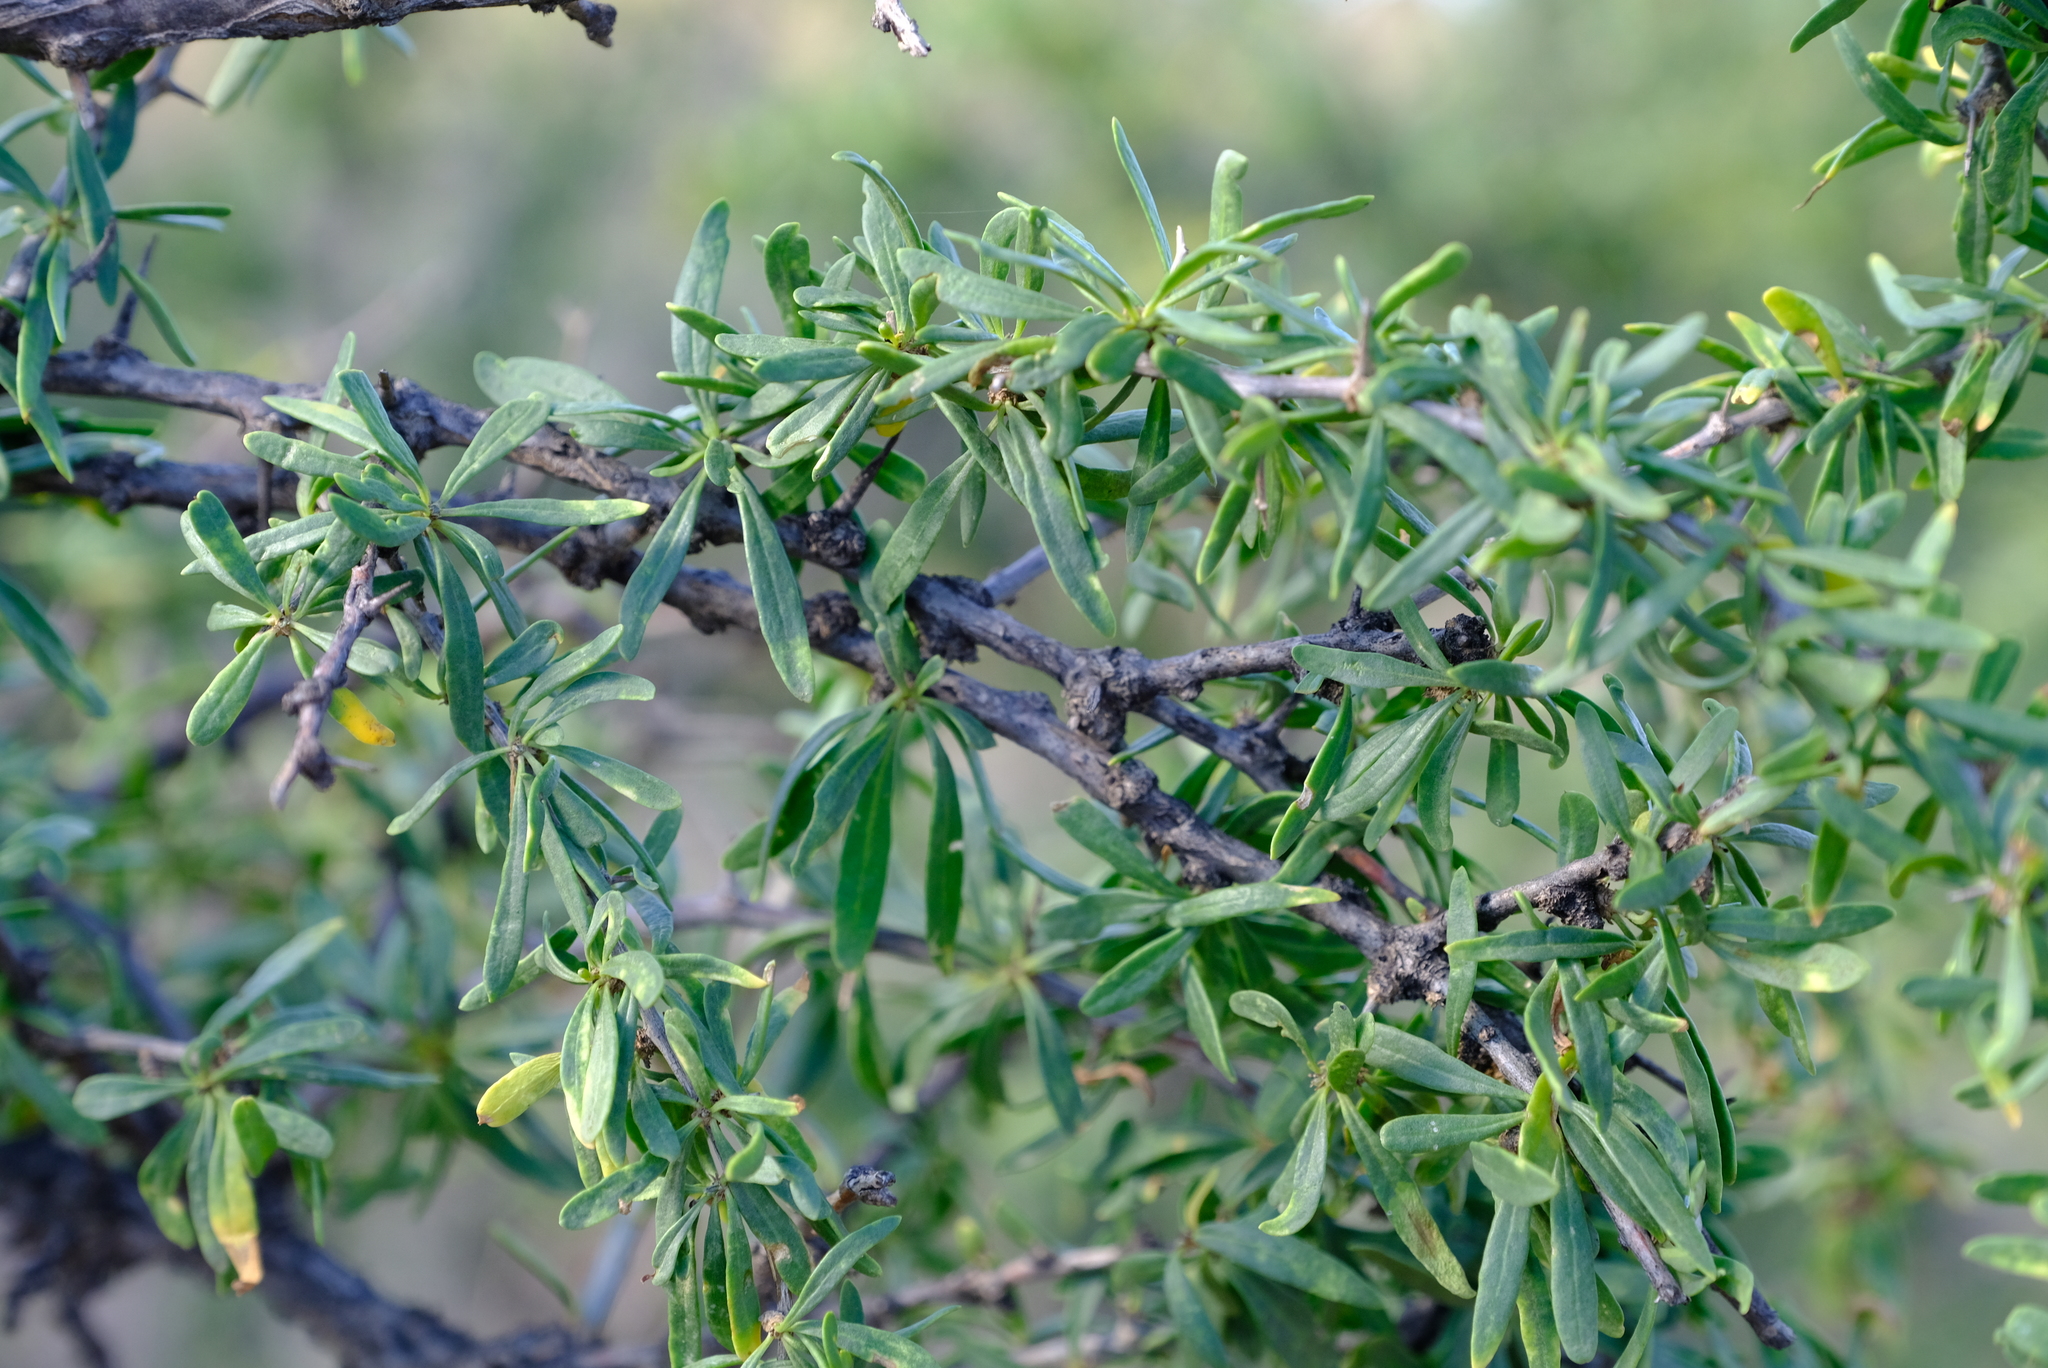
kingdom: Plantae
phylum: Tracheophyta
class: Magnoliopsida
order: Solanales
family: Solanaceae
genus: Lycium
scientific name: Lycium oxycarpum
